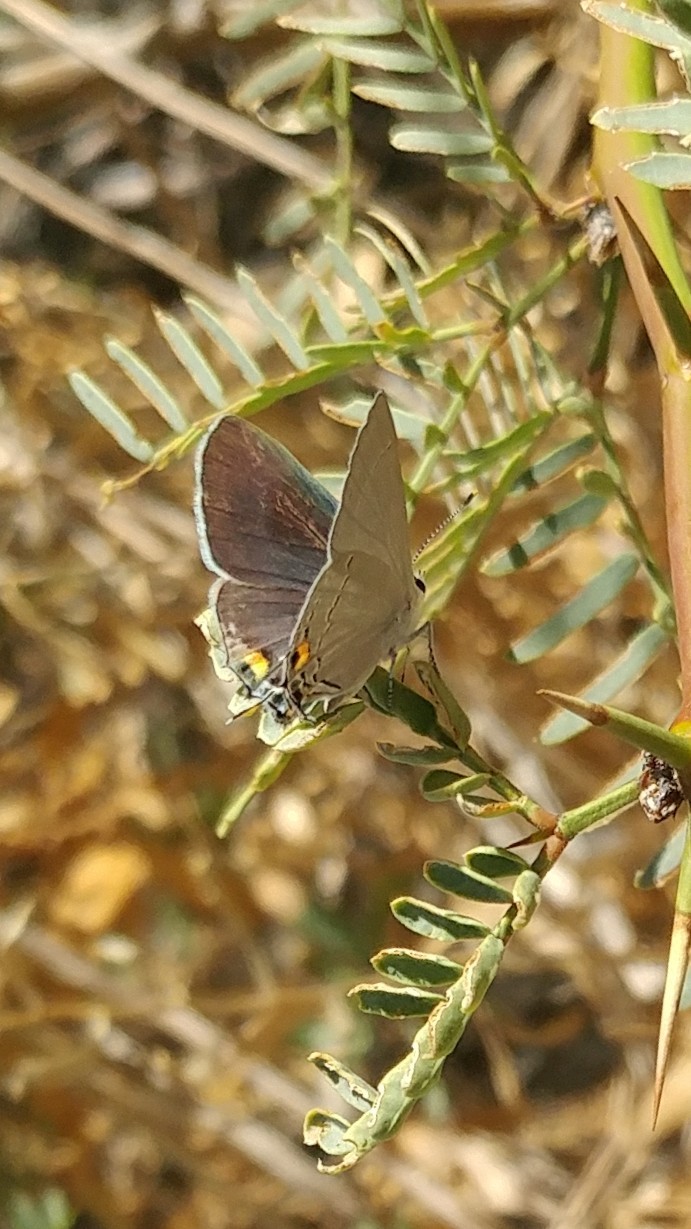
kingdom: Animalia
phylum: Arthropoda
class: Insecta
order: Lepidoptera
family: Lycaenidae
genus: Strymon
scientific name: Strymon melinus
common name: Gray hairstreak
